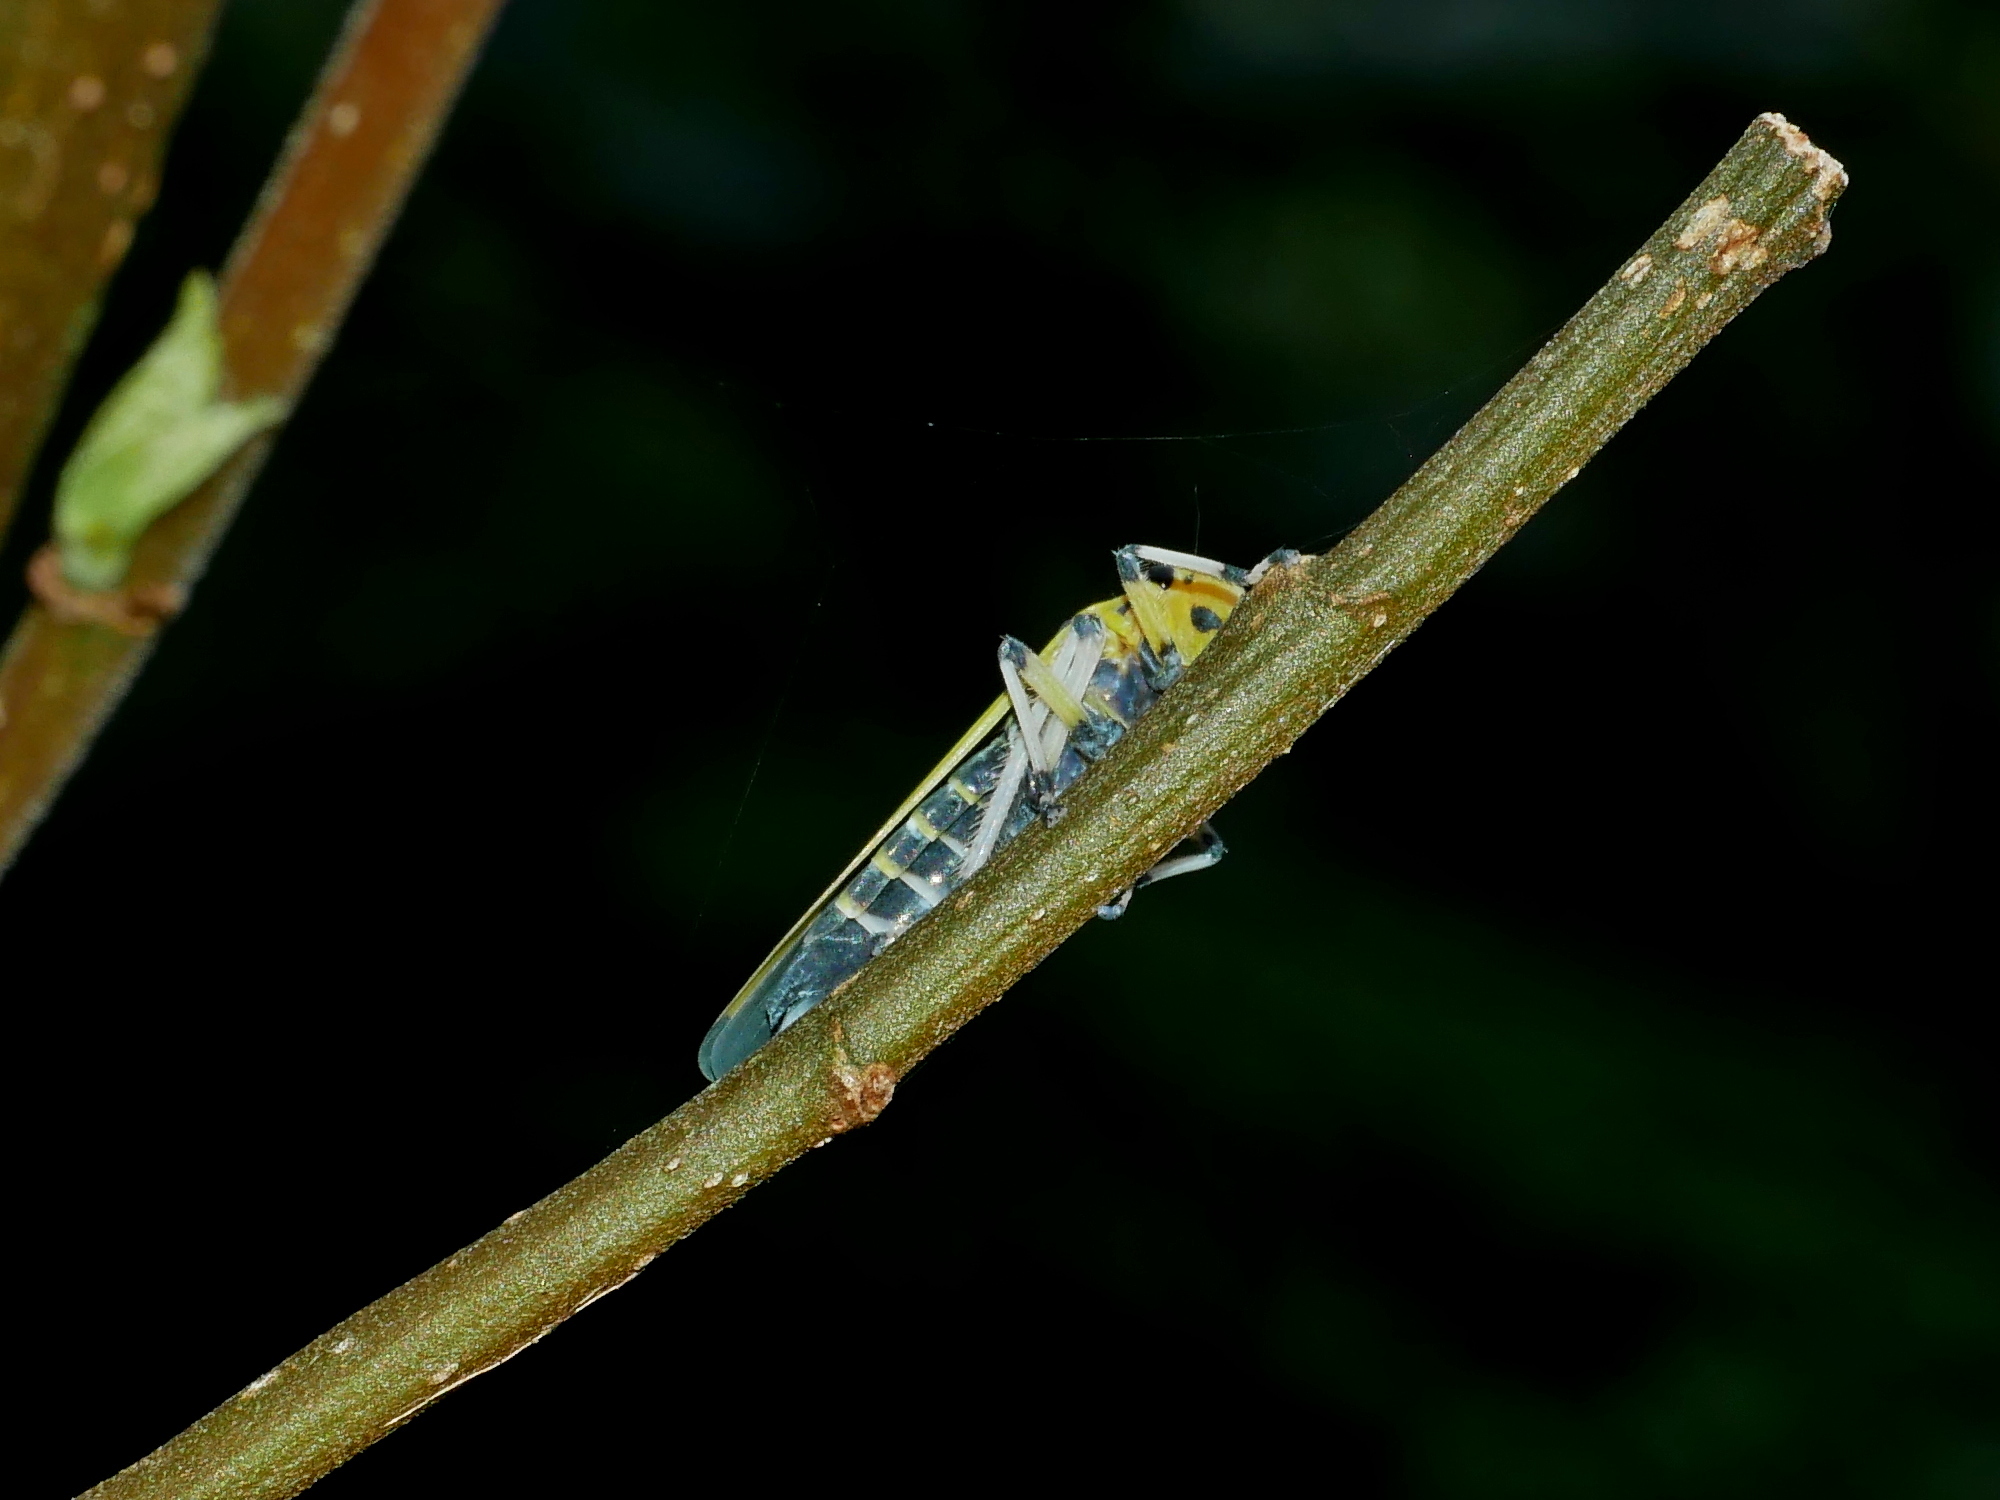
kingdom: Animalia
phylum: Arthropoda
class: Insecta
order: Hemiptera
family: Cicadellidae
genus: Bothrogonia
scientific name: Bothrogonia ferruginea
